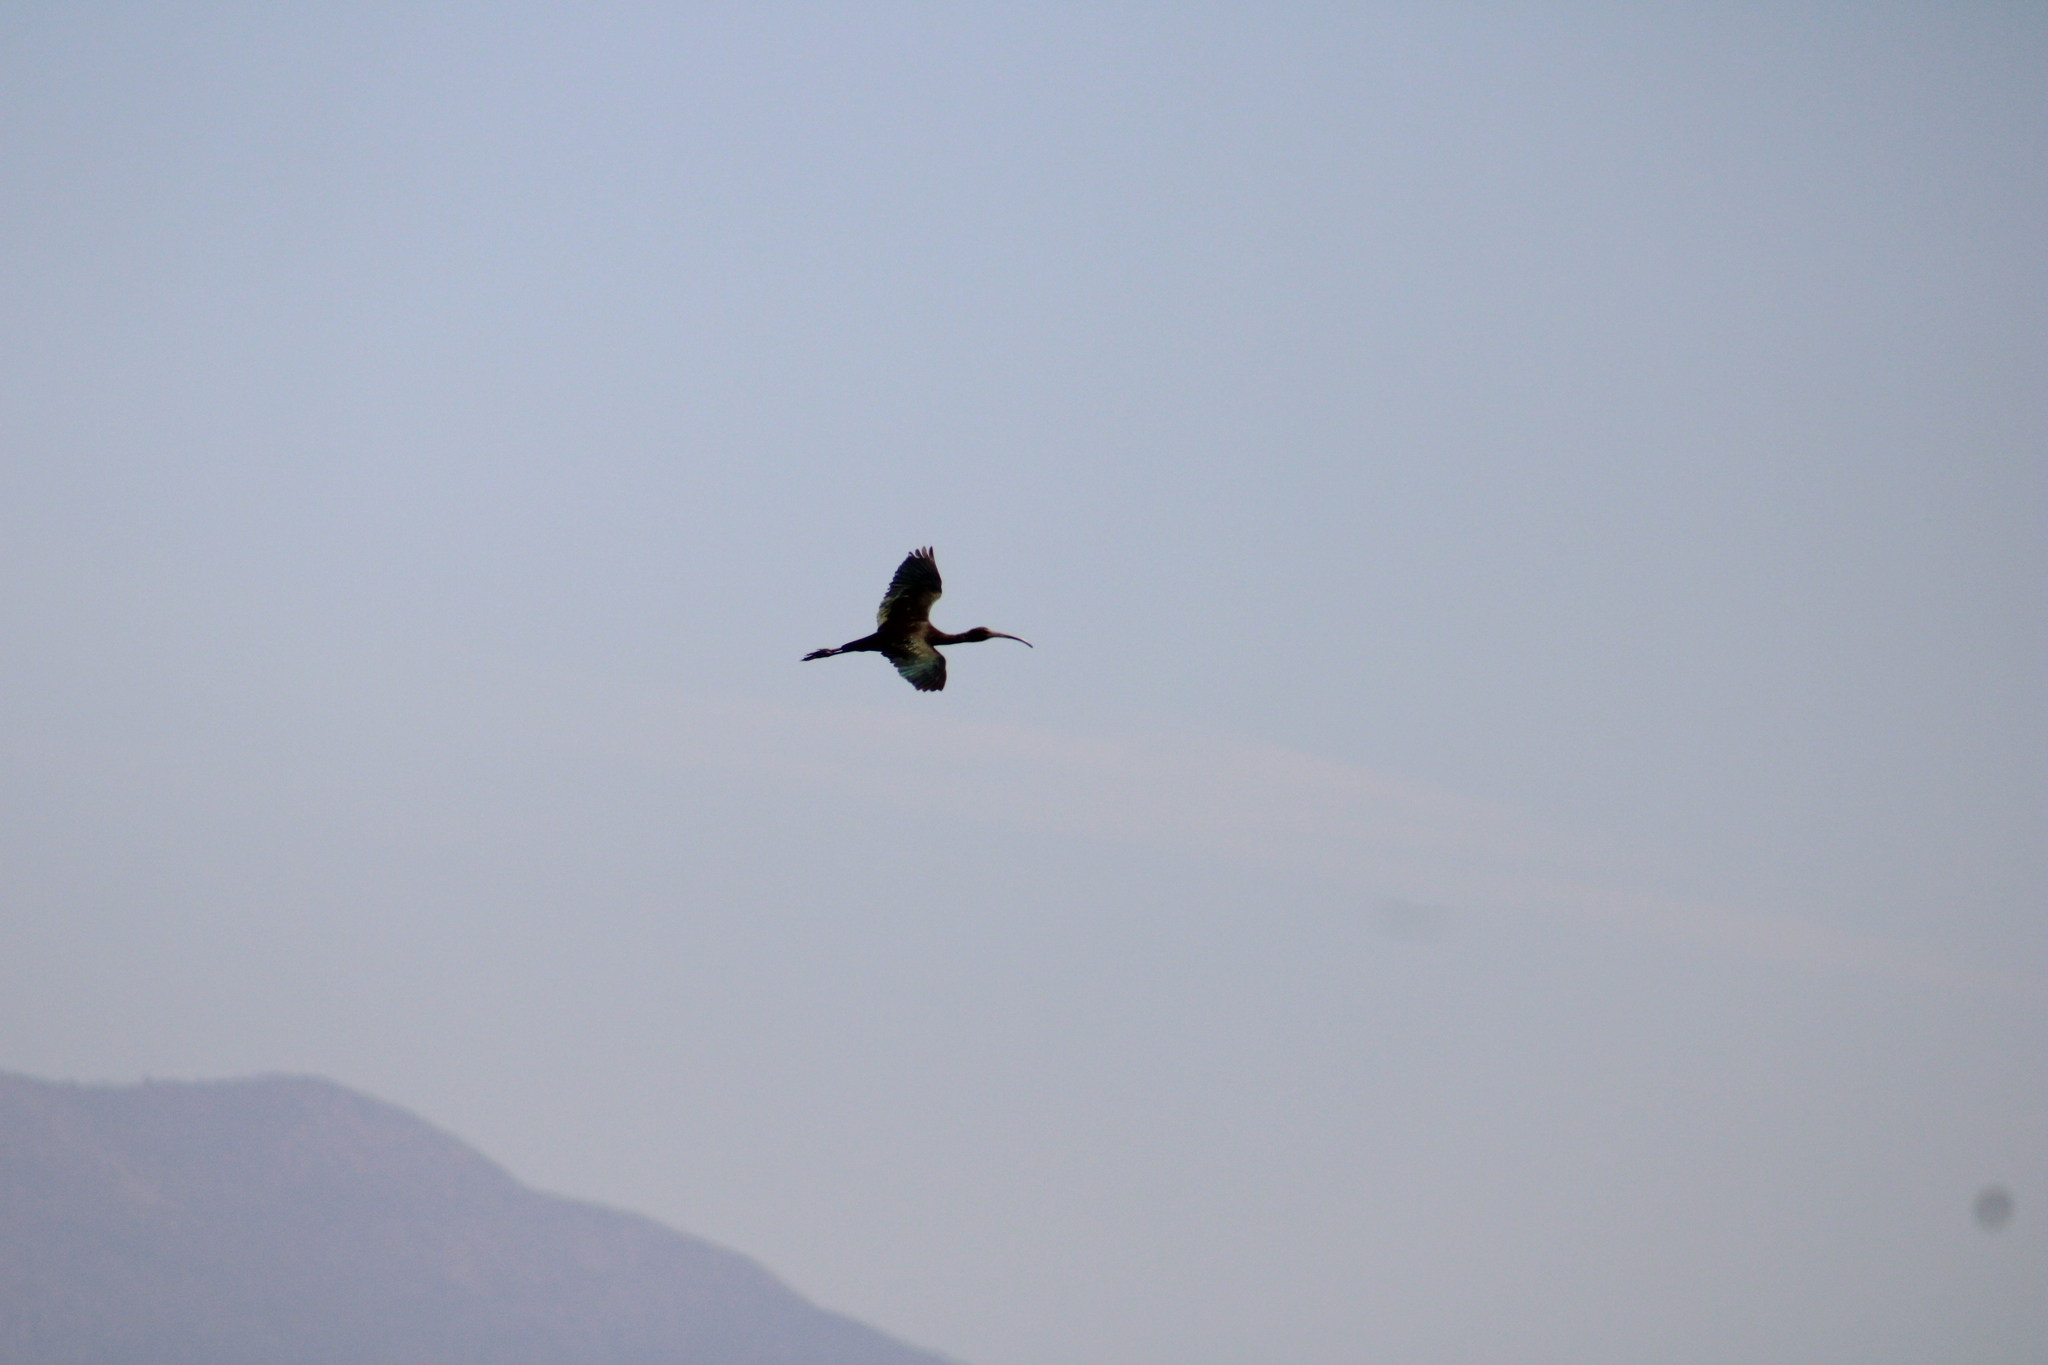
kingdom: Animalia
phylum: Chordata
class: Aves
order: Pelecaniformes
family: Threskiornithidae
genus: Plegadis
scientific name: Plegadis chihi
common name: White-faced ibis
